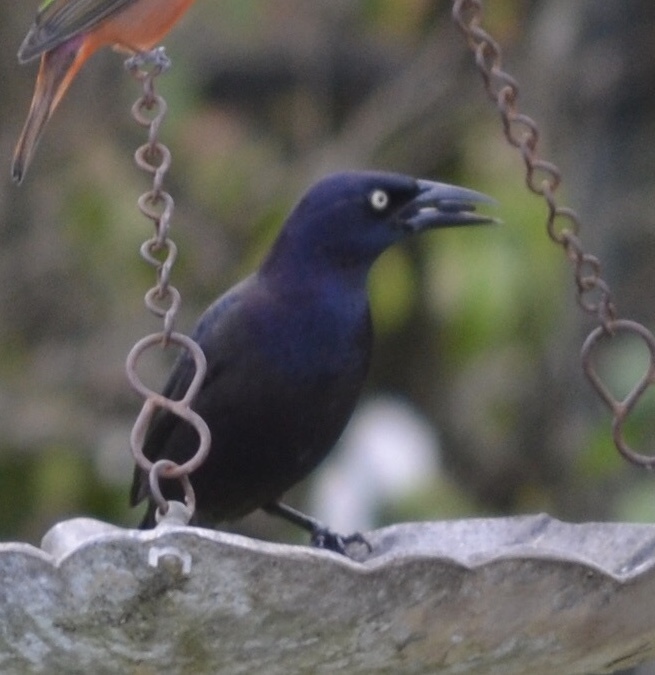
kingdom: Animalia
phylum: Chordata
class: Aves
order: Passeriformes
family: Icteridae
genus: Quiscalus
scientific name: Quiscalus quiscula
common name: Common grackle
